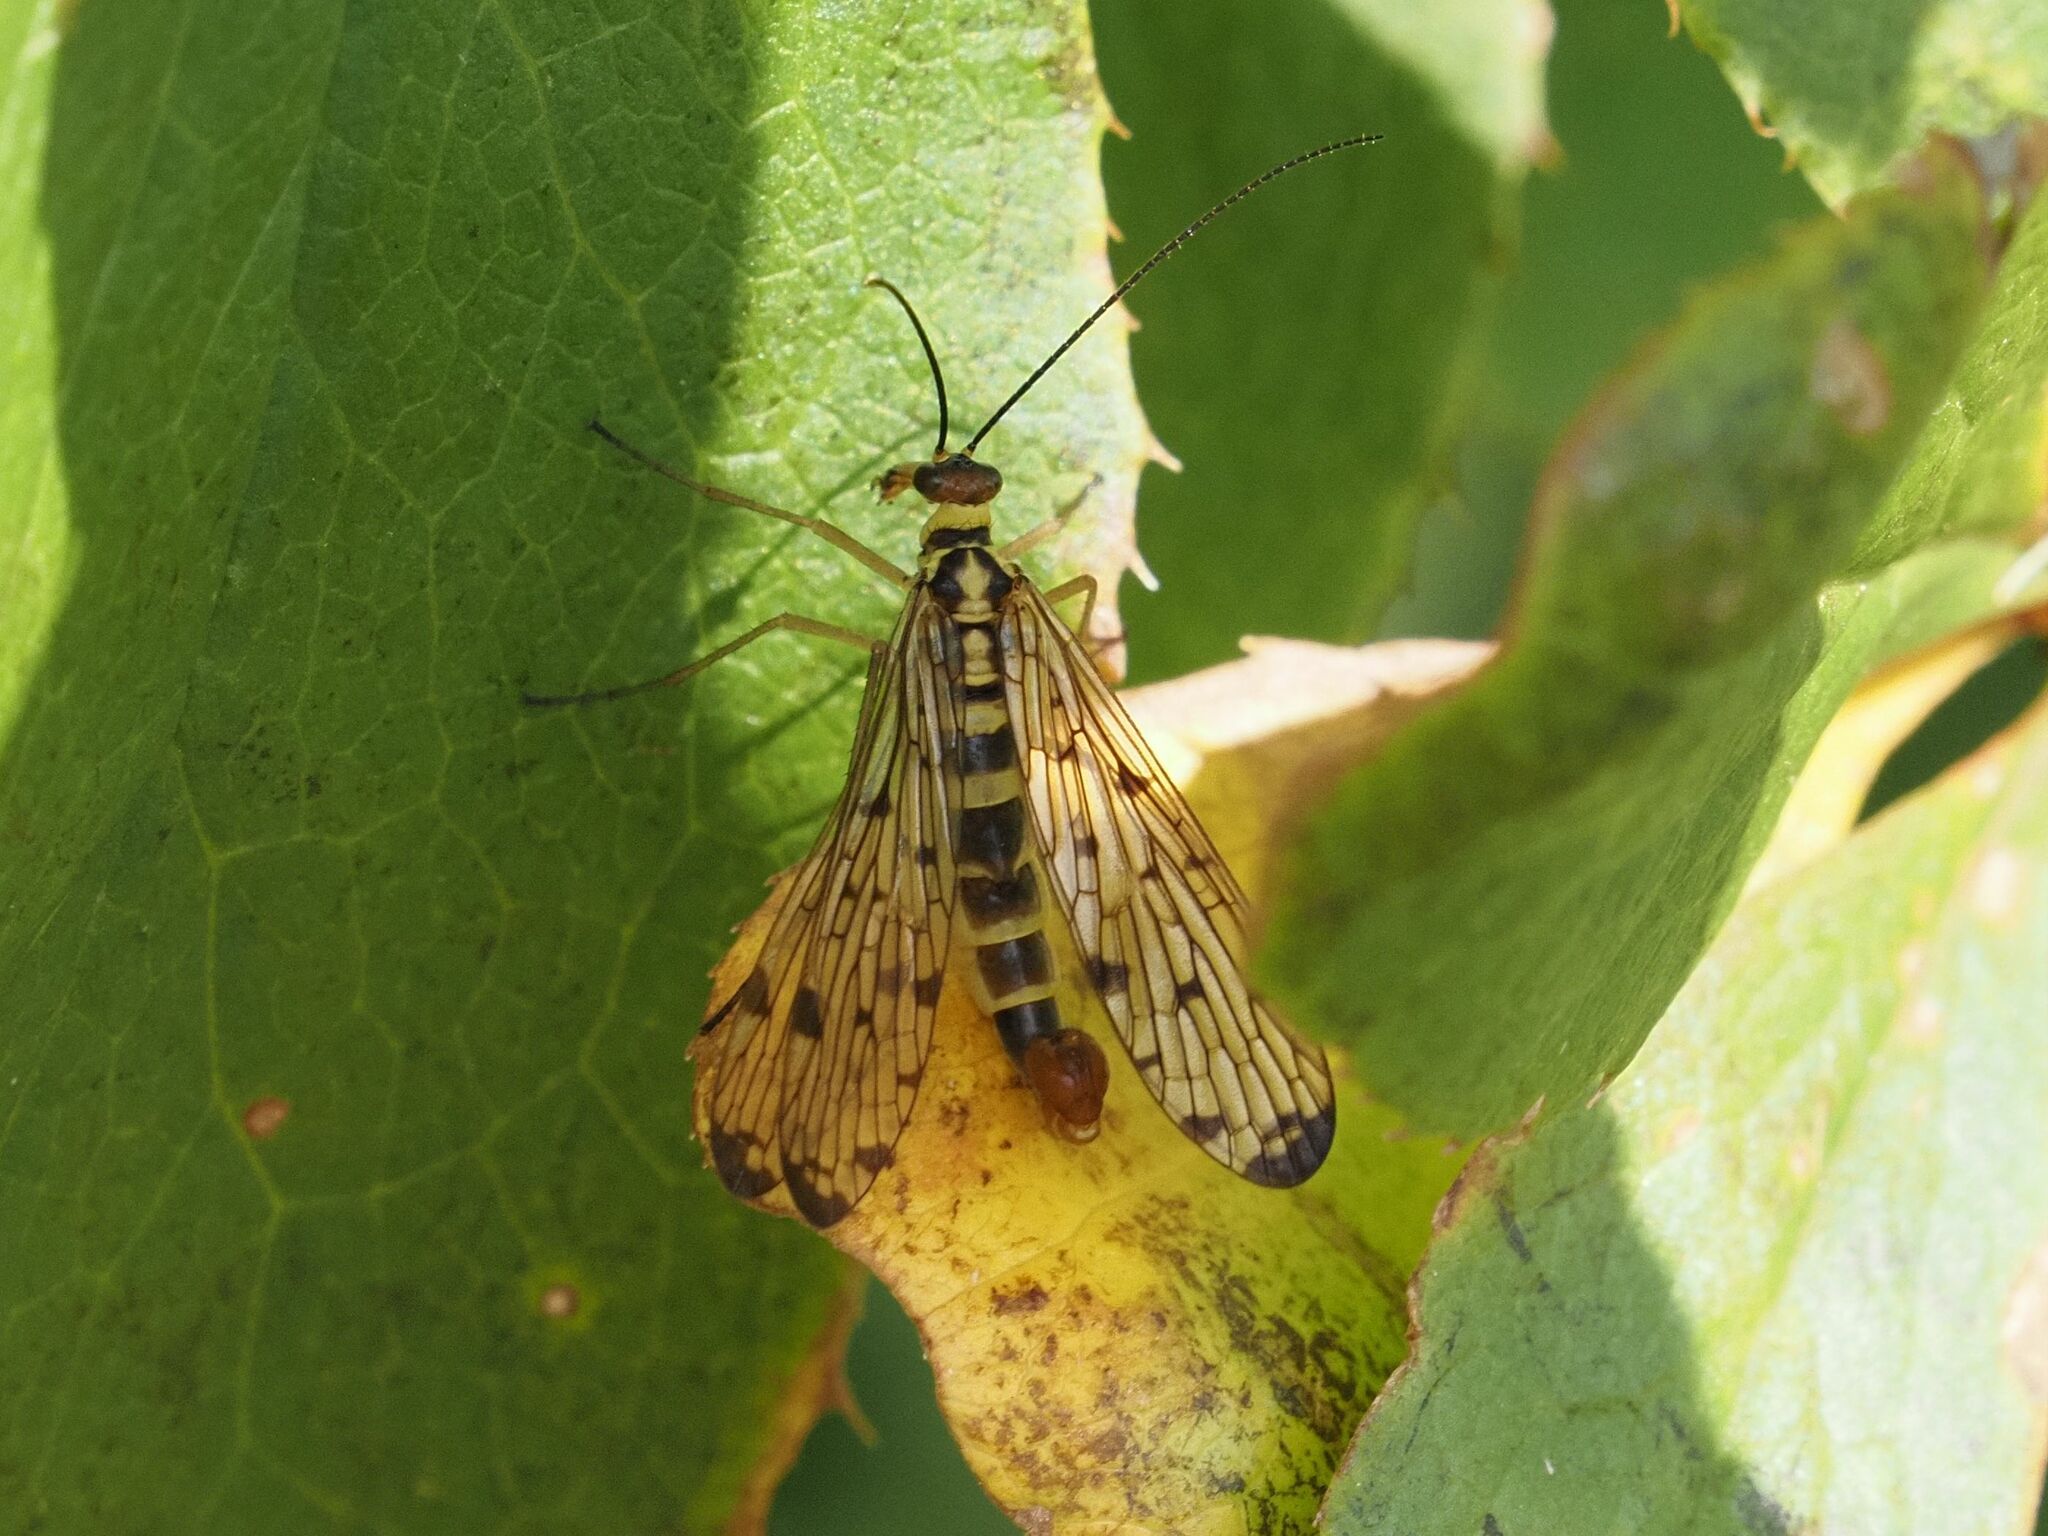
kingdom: Animalia
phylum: Arthropoda
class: Insecta
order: Mecoptera
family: Panorpidae
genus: Panorpa
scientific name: Panorpa germanica
